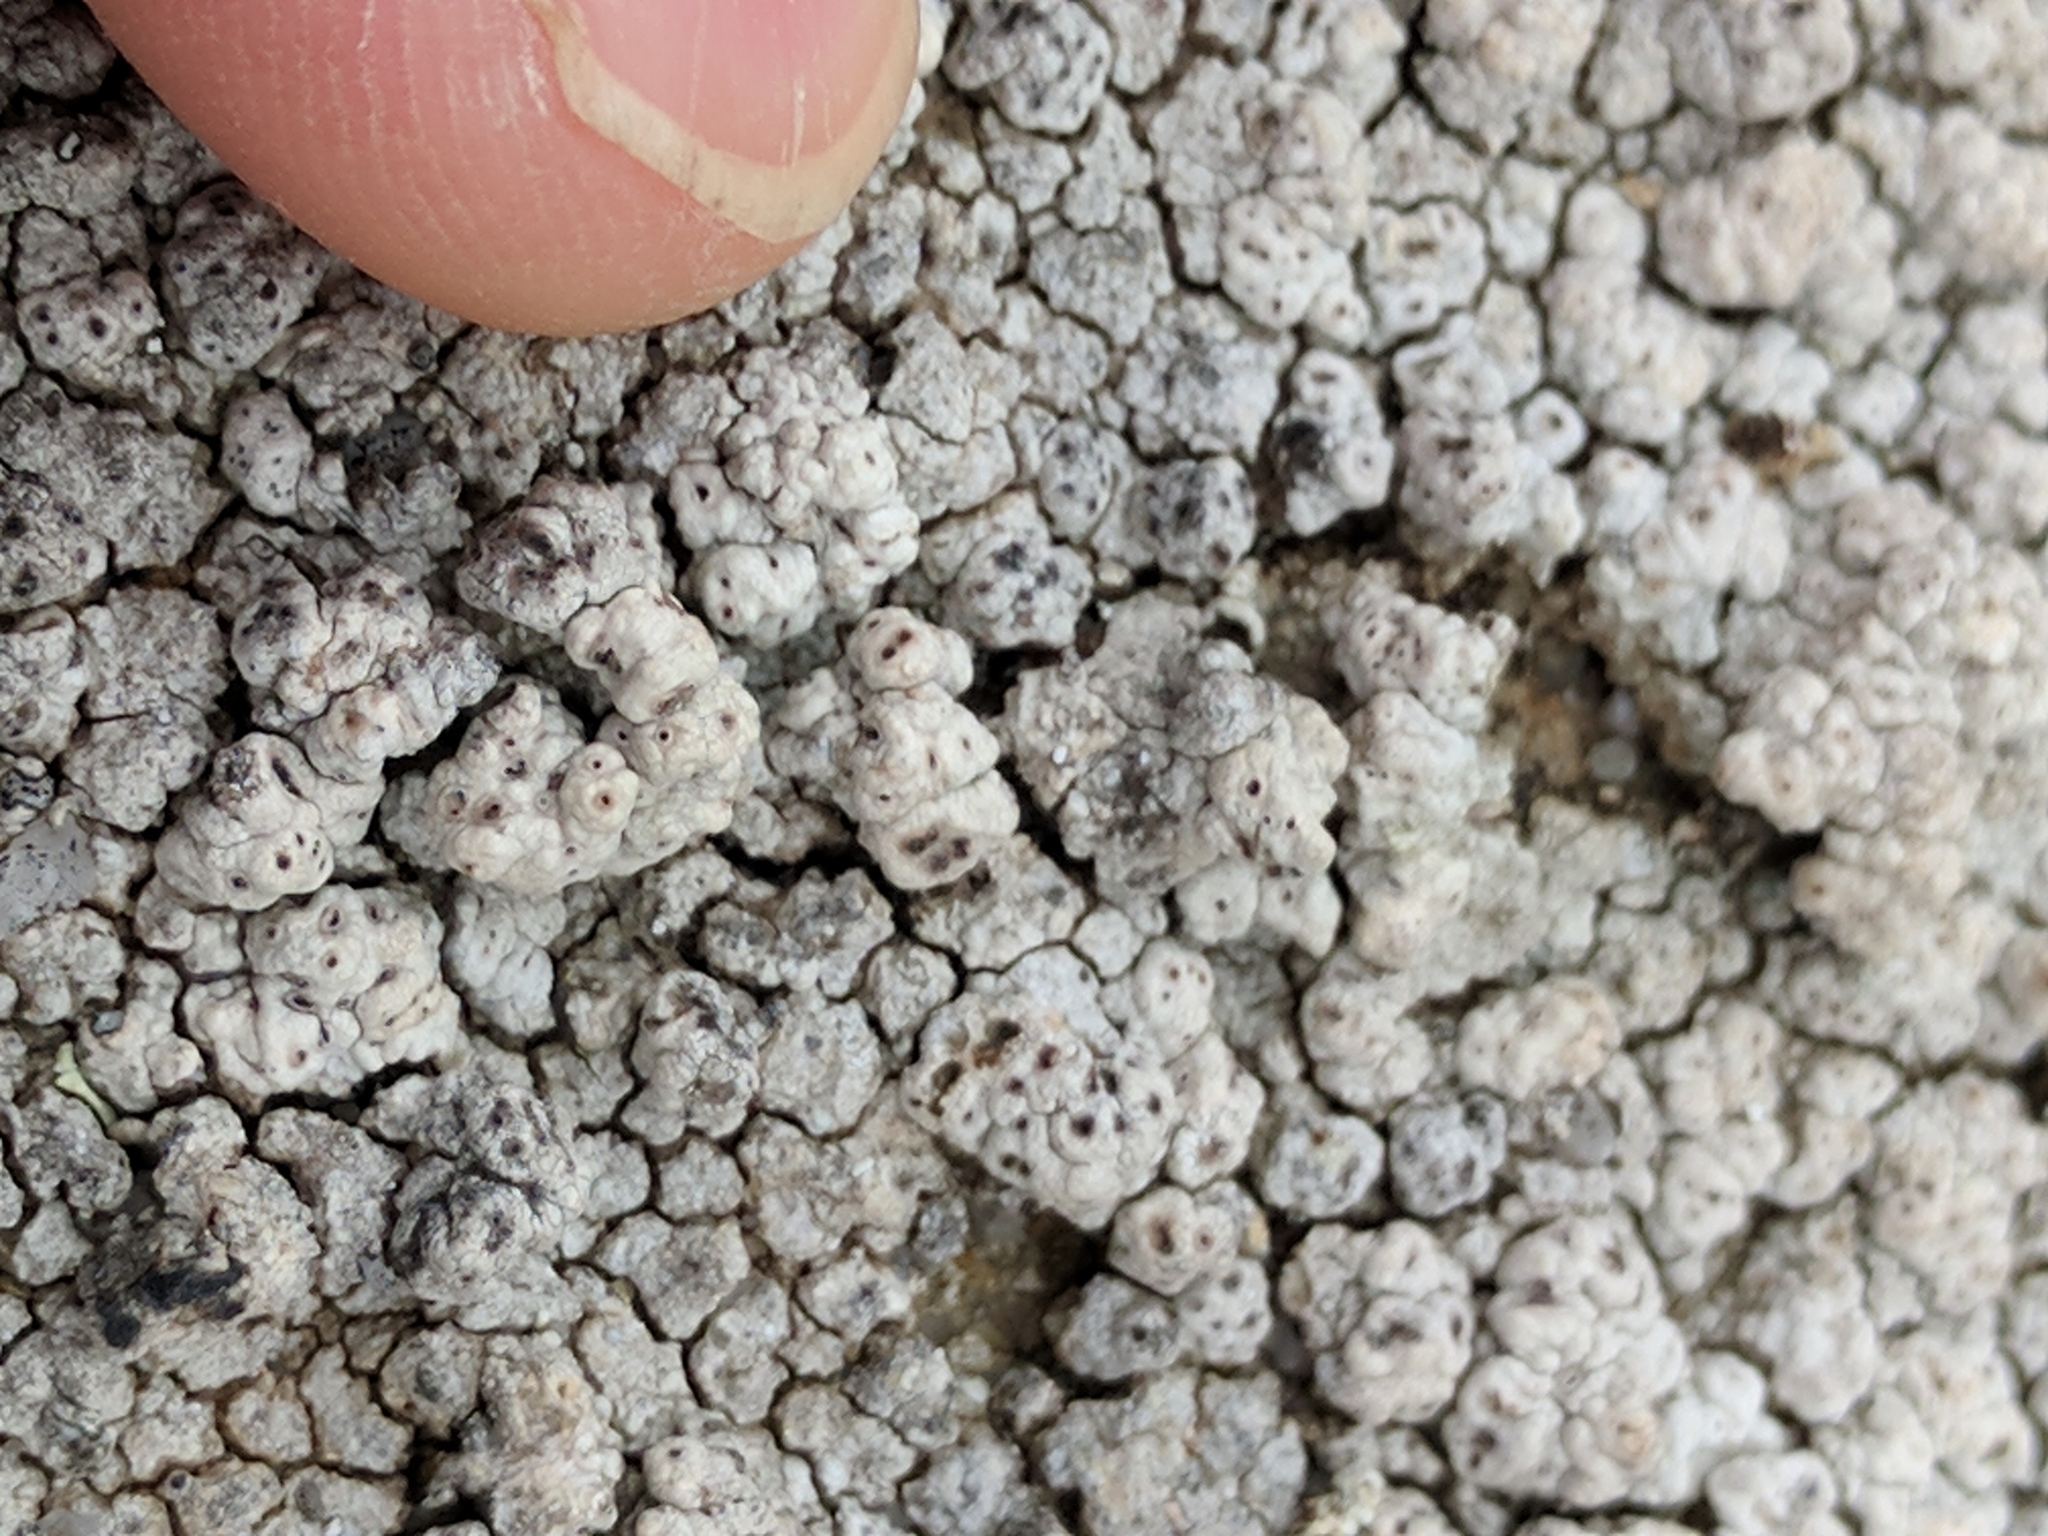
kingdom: Fungi
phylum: Ascomycota
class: Lecanoromycetes
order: Pertusariales
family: Pertusariaceae
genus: Pertusaria
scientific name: Pertusaria californica
